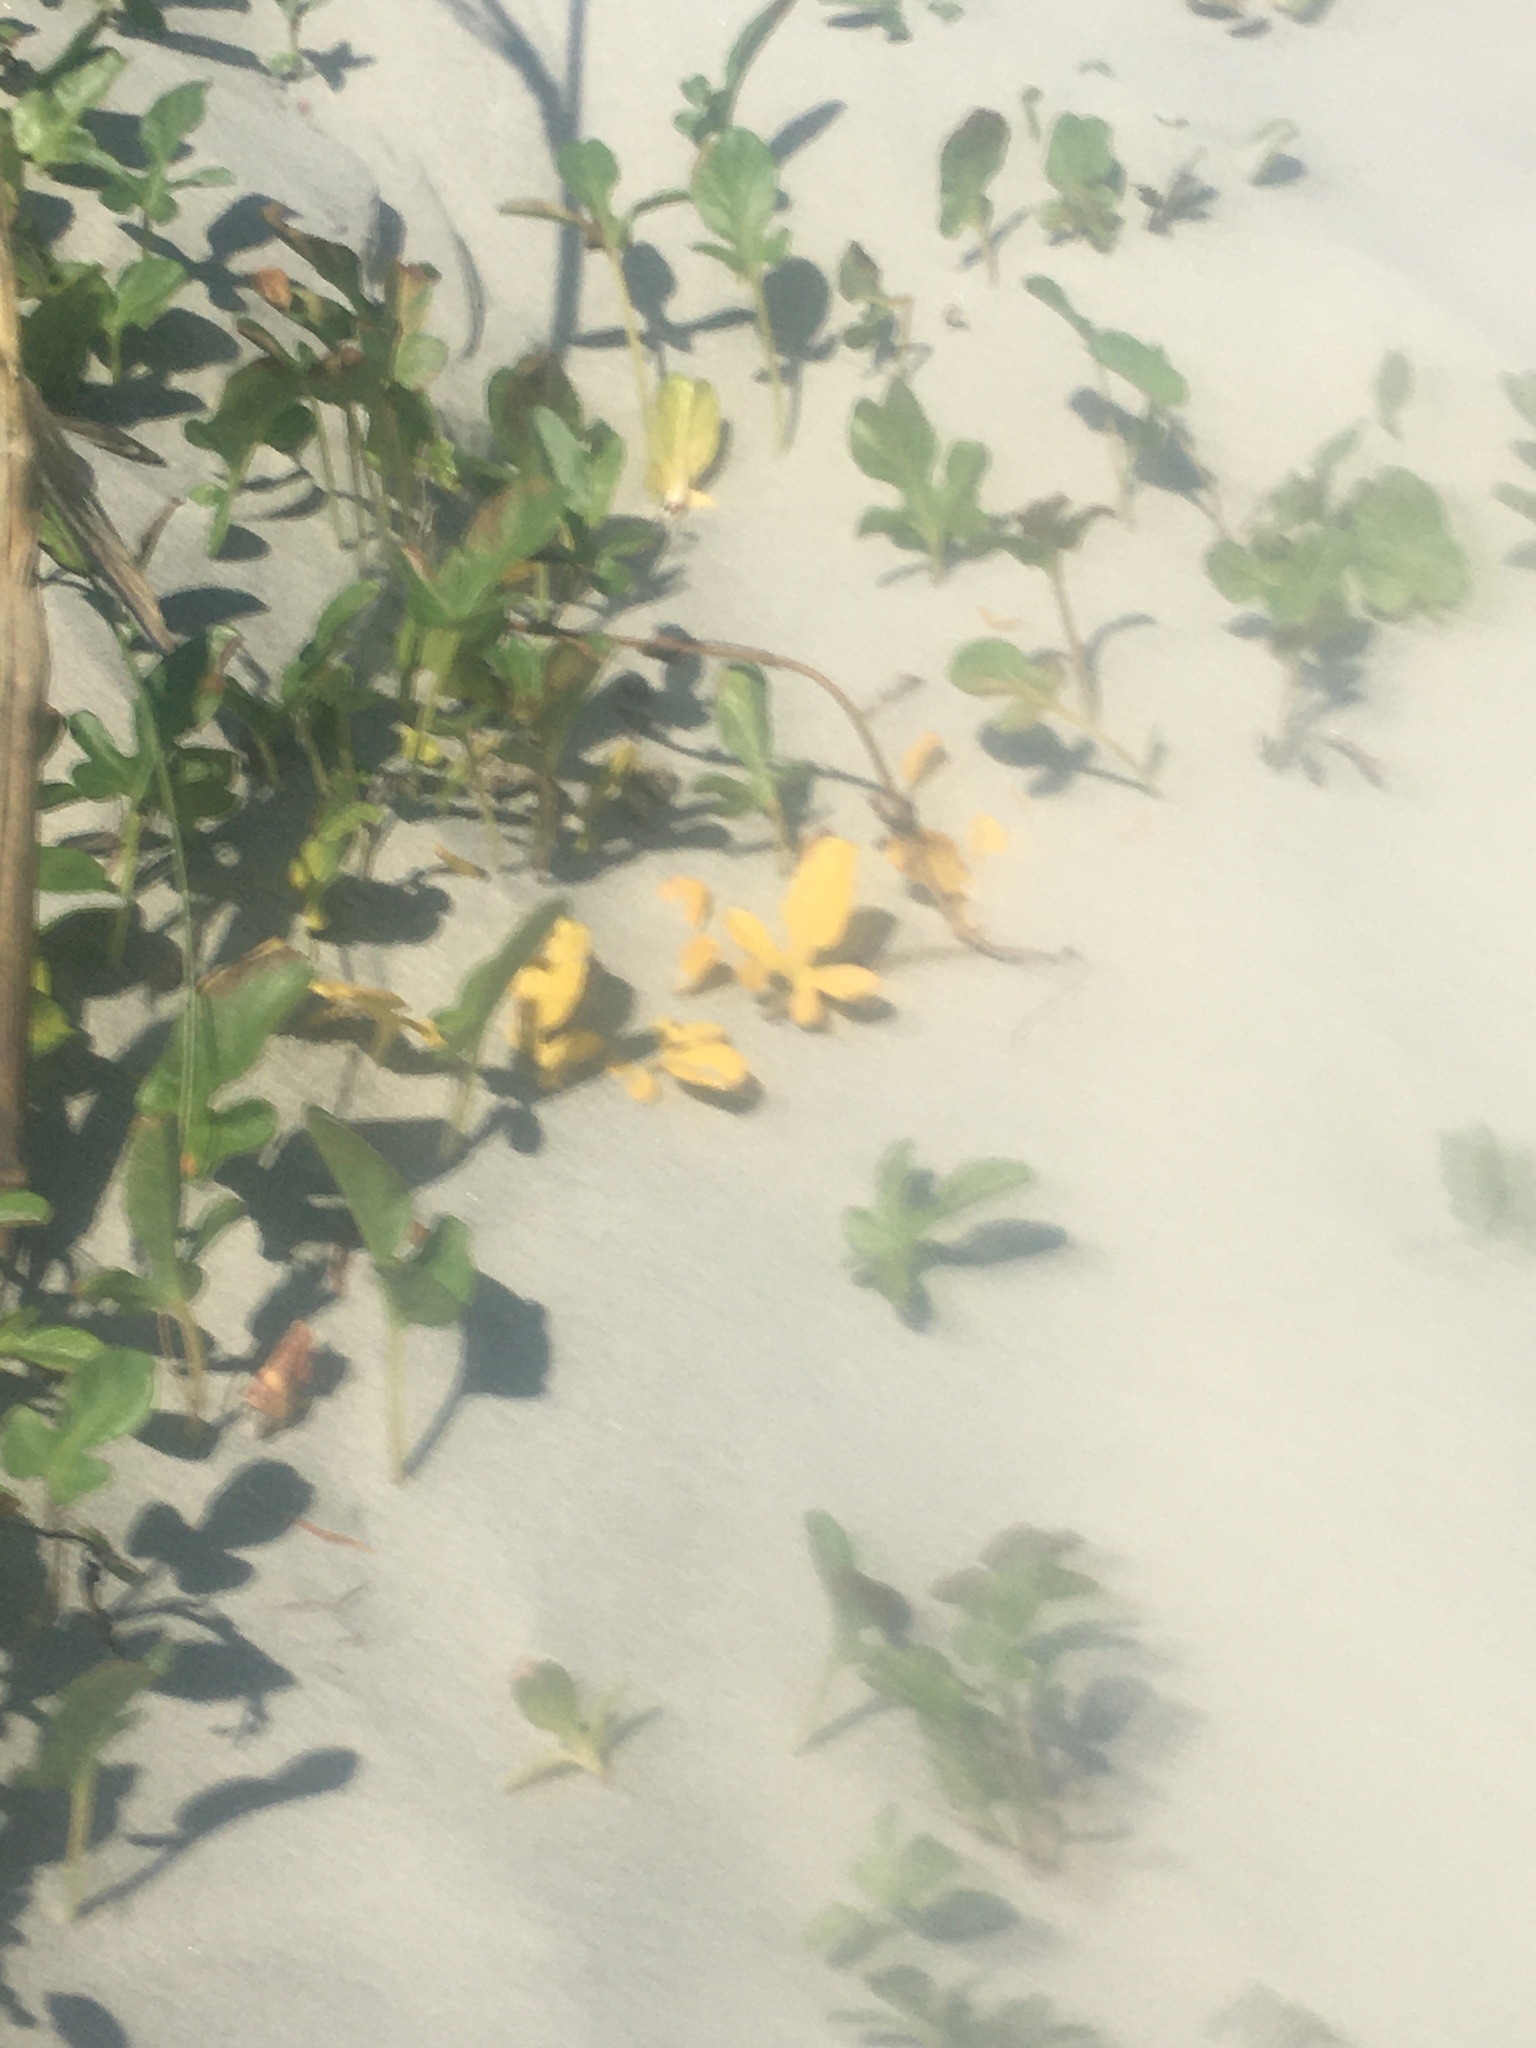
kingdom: Plantae
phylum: Tracheophyta
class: Magnoliopsida
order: Solanales
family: Convolvulaceae
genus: Ipomoea
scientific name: Ipomoea imperati
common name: Fiddle-leaf morning-glory
